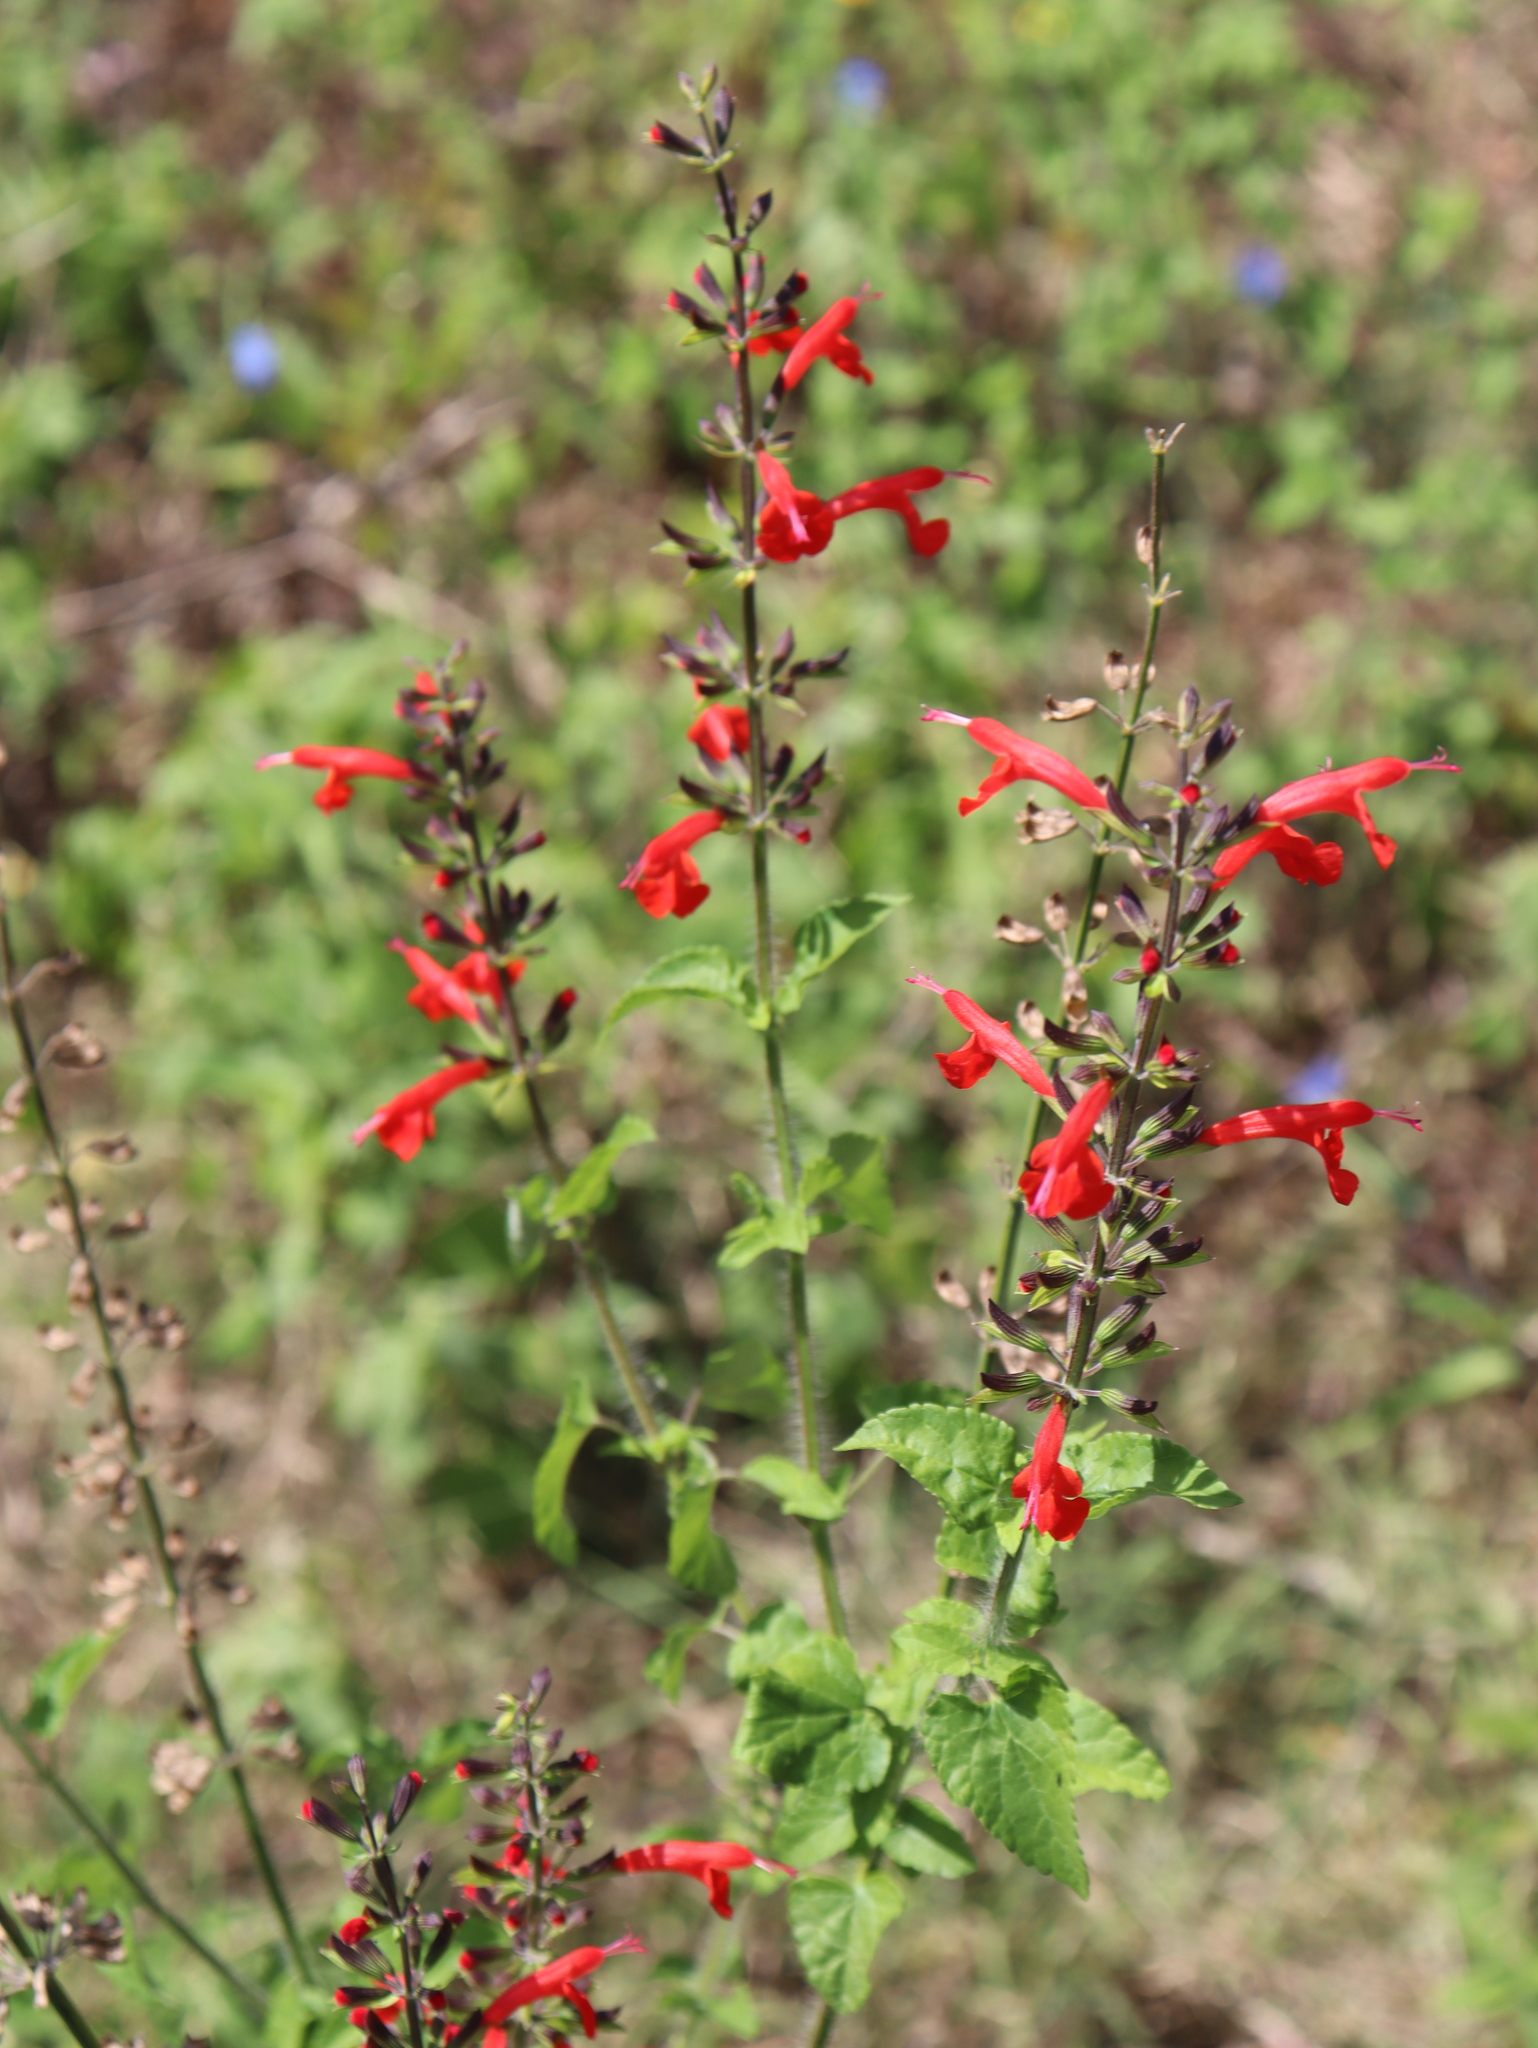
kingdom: Plantae
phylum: Tracheophyta
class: Magnoliopsida
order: Lamiales
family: Lamiaceae
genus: Salvia
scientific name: Salvia coccinea
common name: Blood sage
